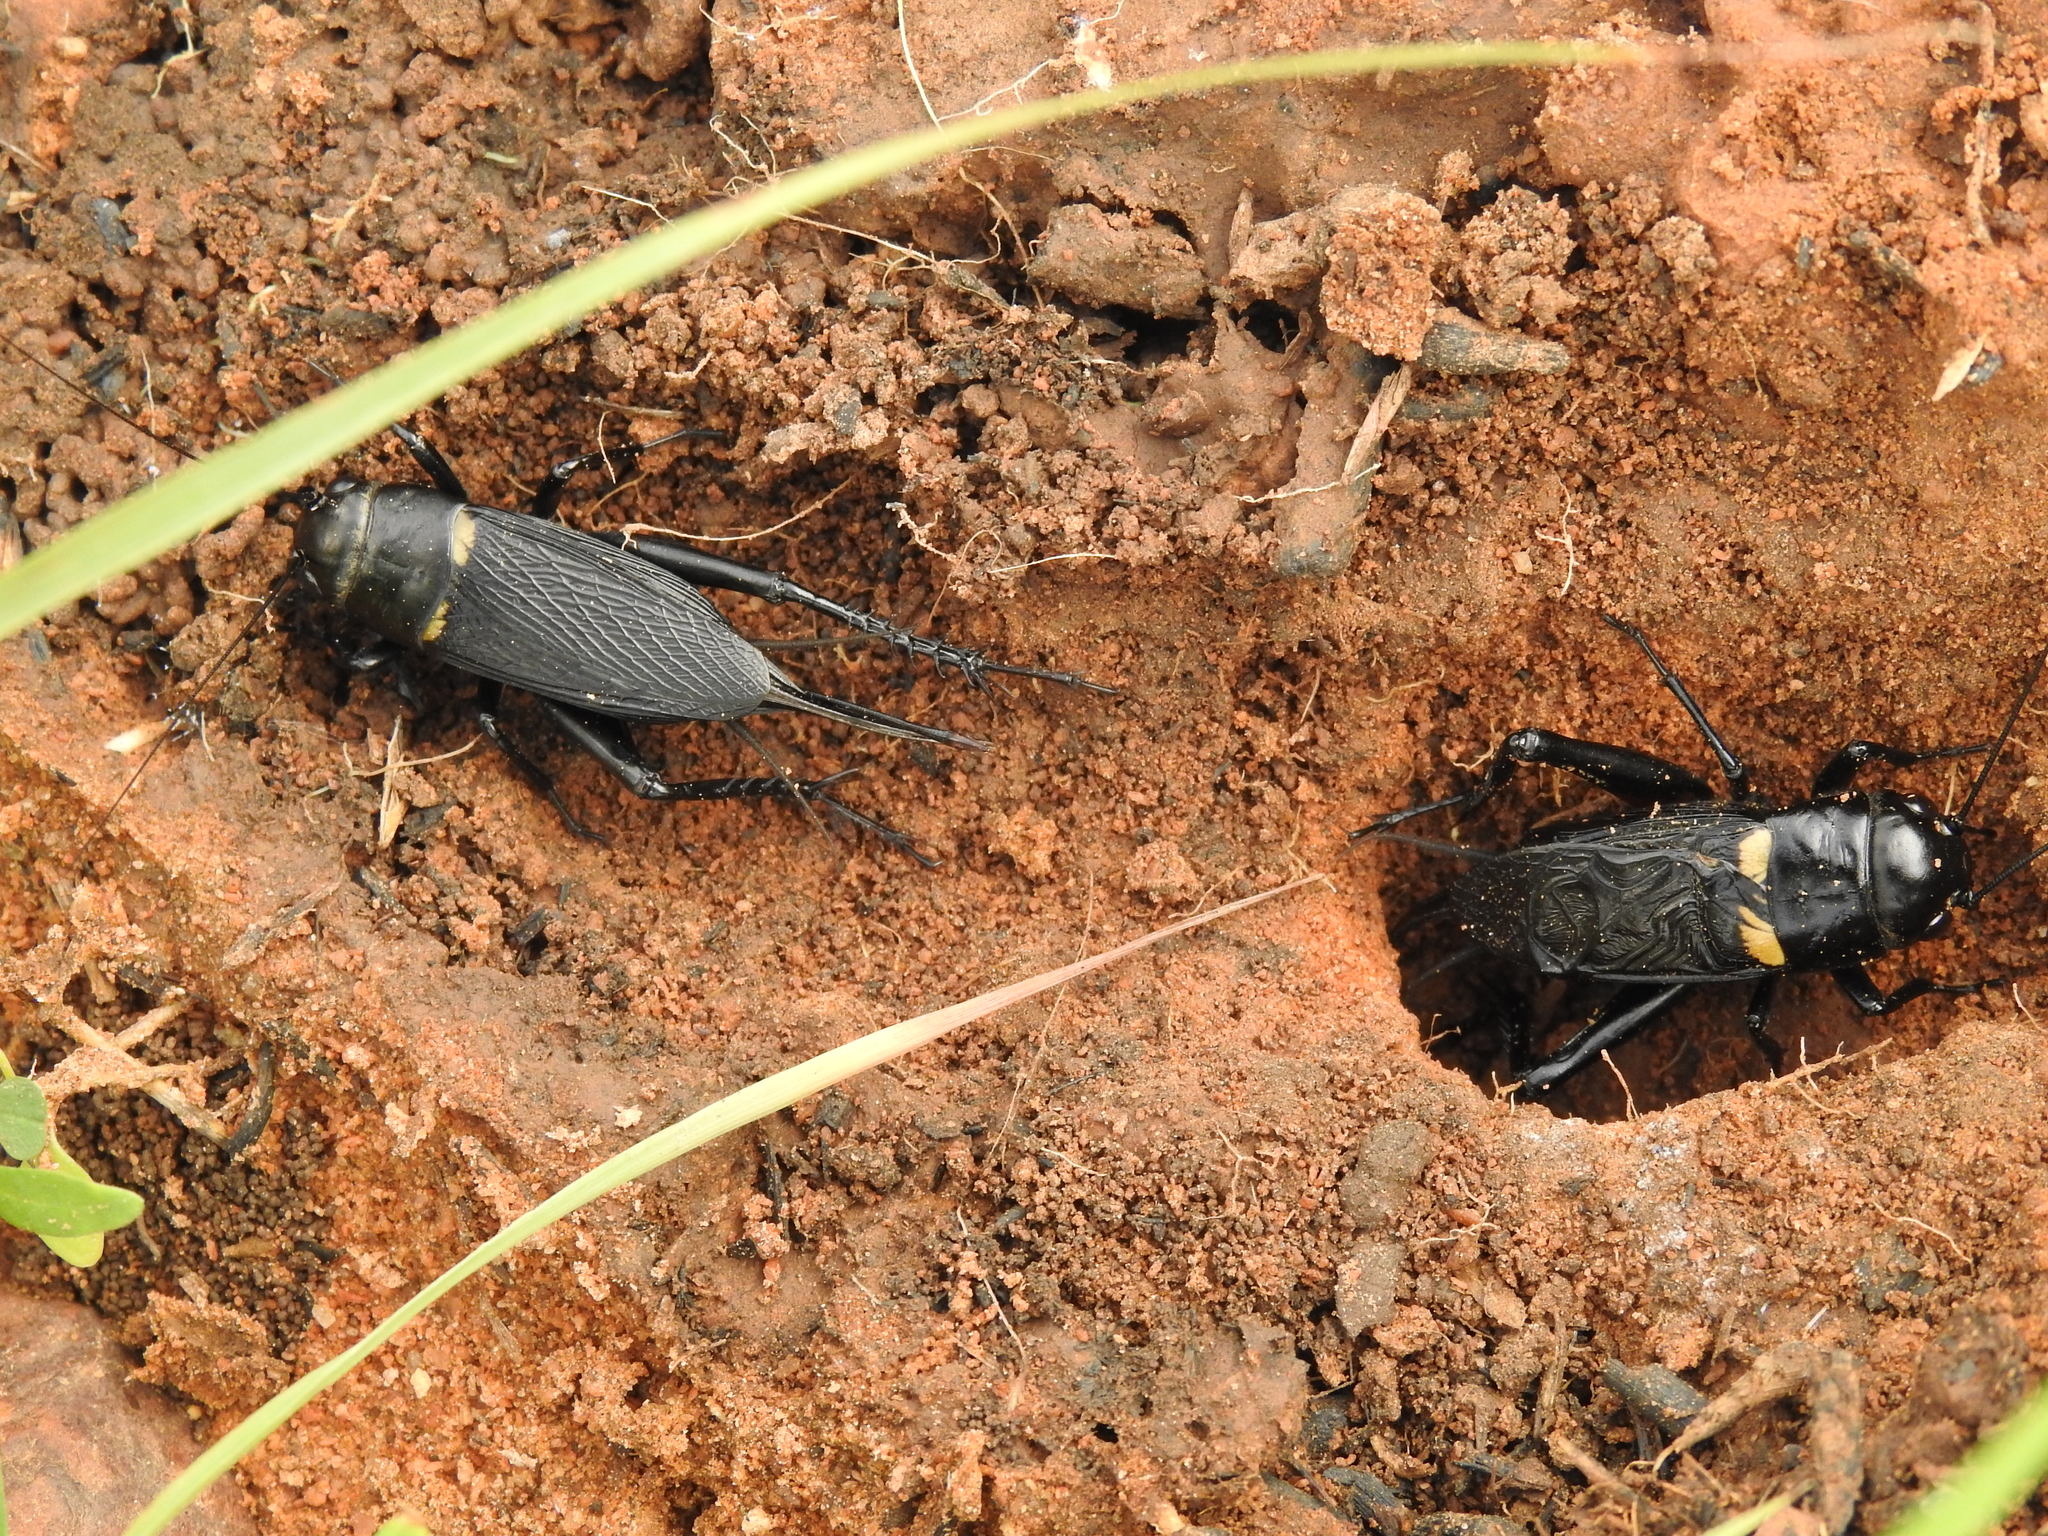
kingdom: Animalia
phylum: Arthropoda
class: Insecta
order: Orthoptera
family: Gryllidae
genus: Gryllus
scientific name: Gryllus bimaculatus
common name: Two-spotted cricket
